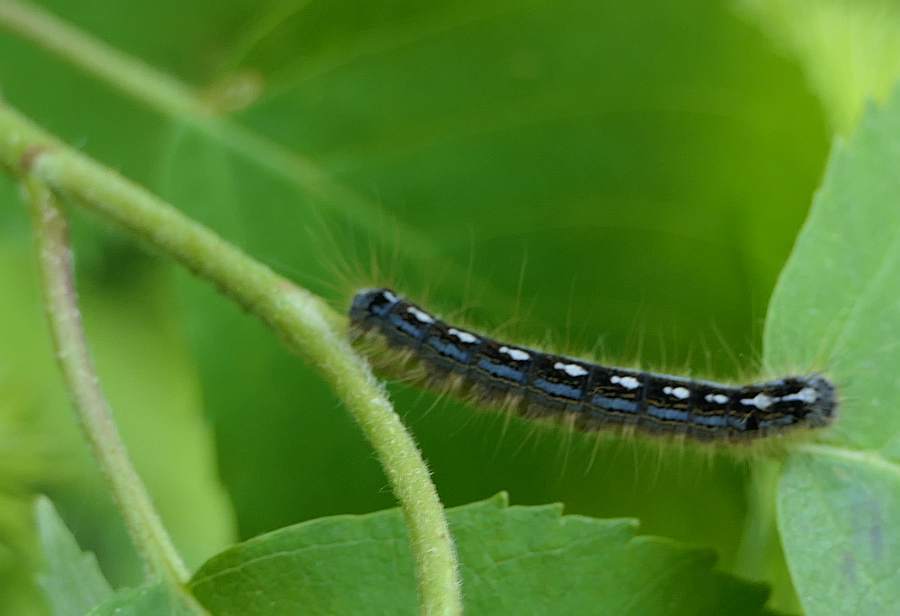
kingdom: Animalia
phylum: Arthropoda
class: Insecta
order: Lepidoptera
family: Lasiocampidae
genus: Malacosoma
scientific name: Malacosoma disstria
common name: Forest tent caterpillar
